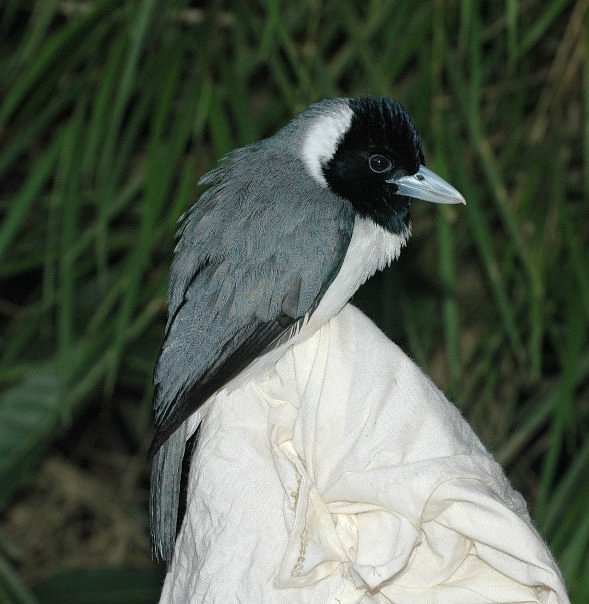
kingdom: Animalia
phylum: Chordata
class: Aves
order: Passeriformes
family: Vangidae
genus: Xenopirostris
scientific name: Xenopirostris polleni
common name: Pollen's vanga
